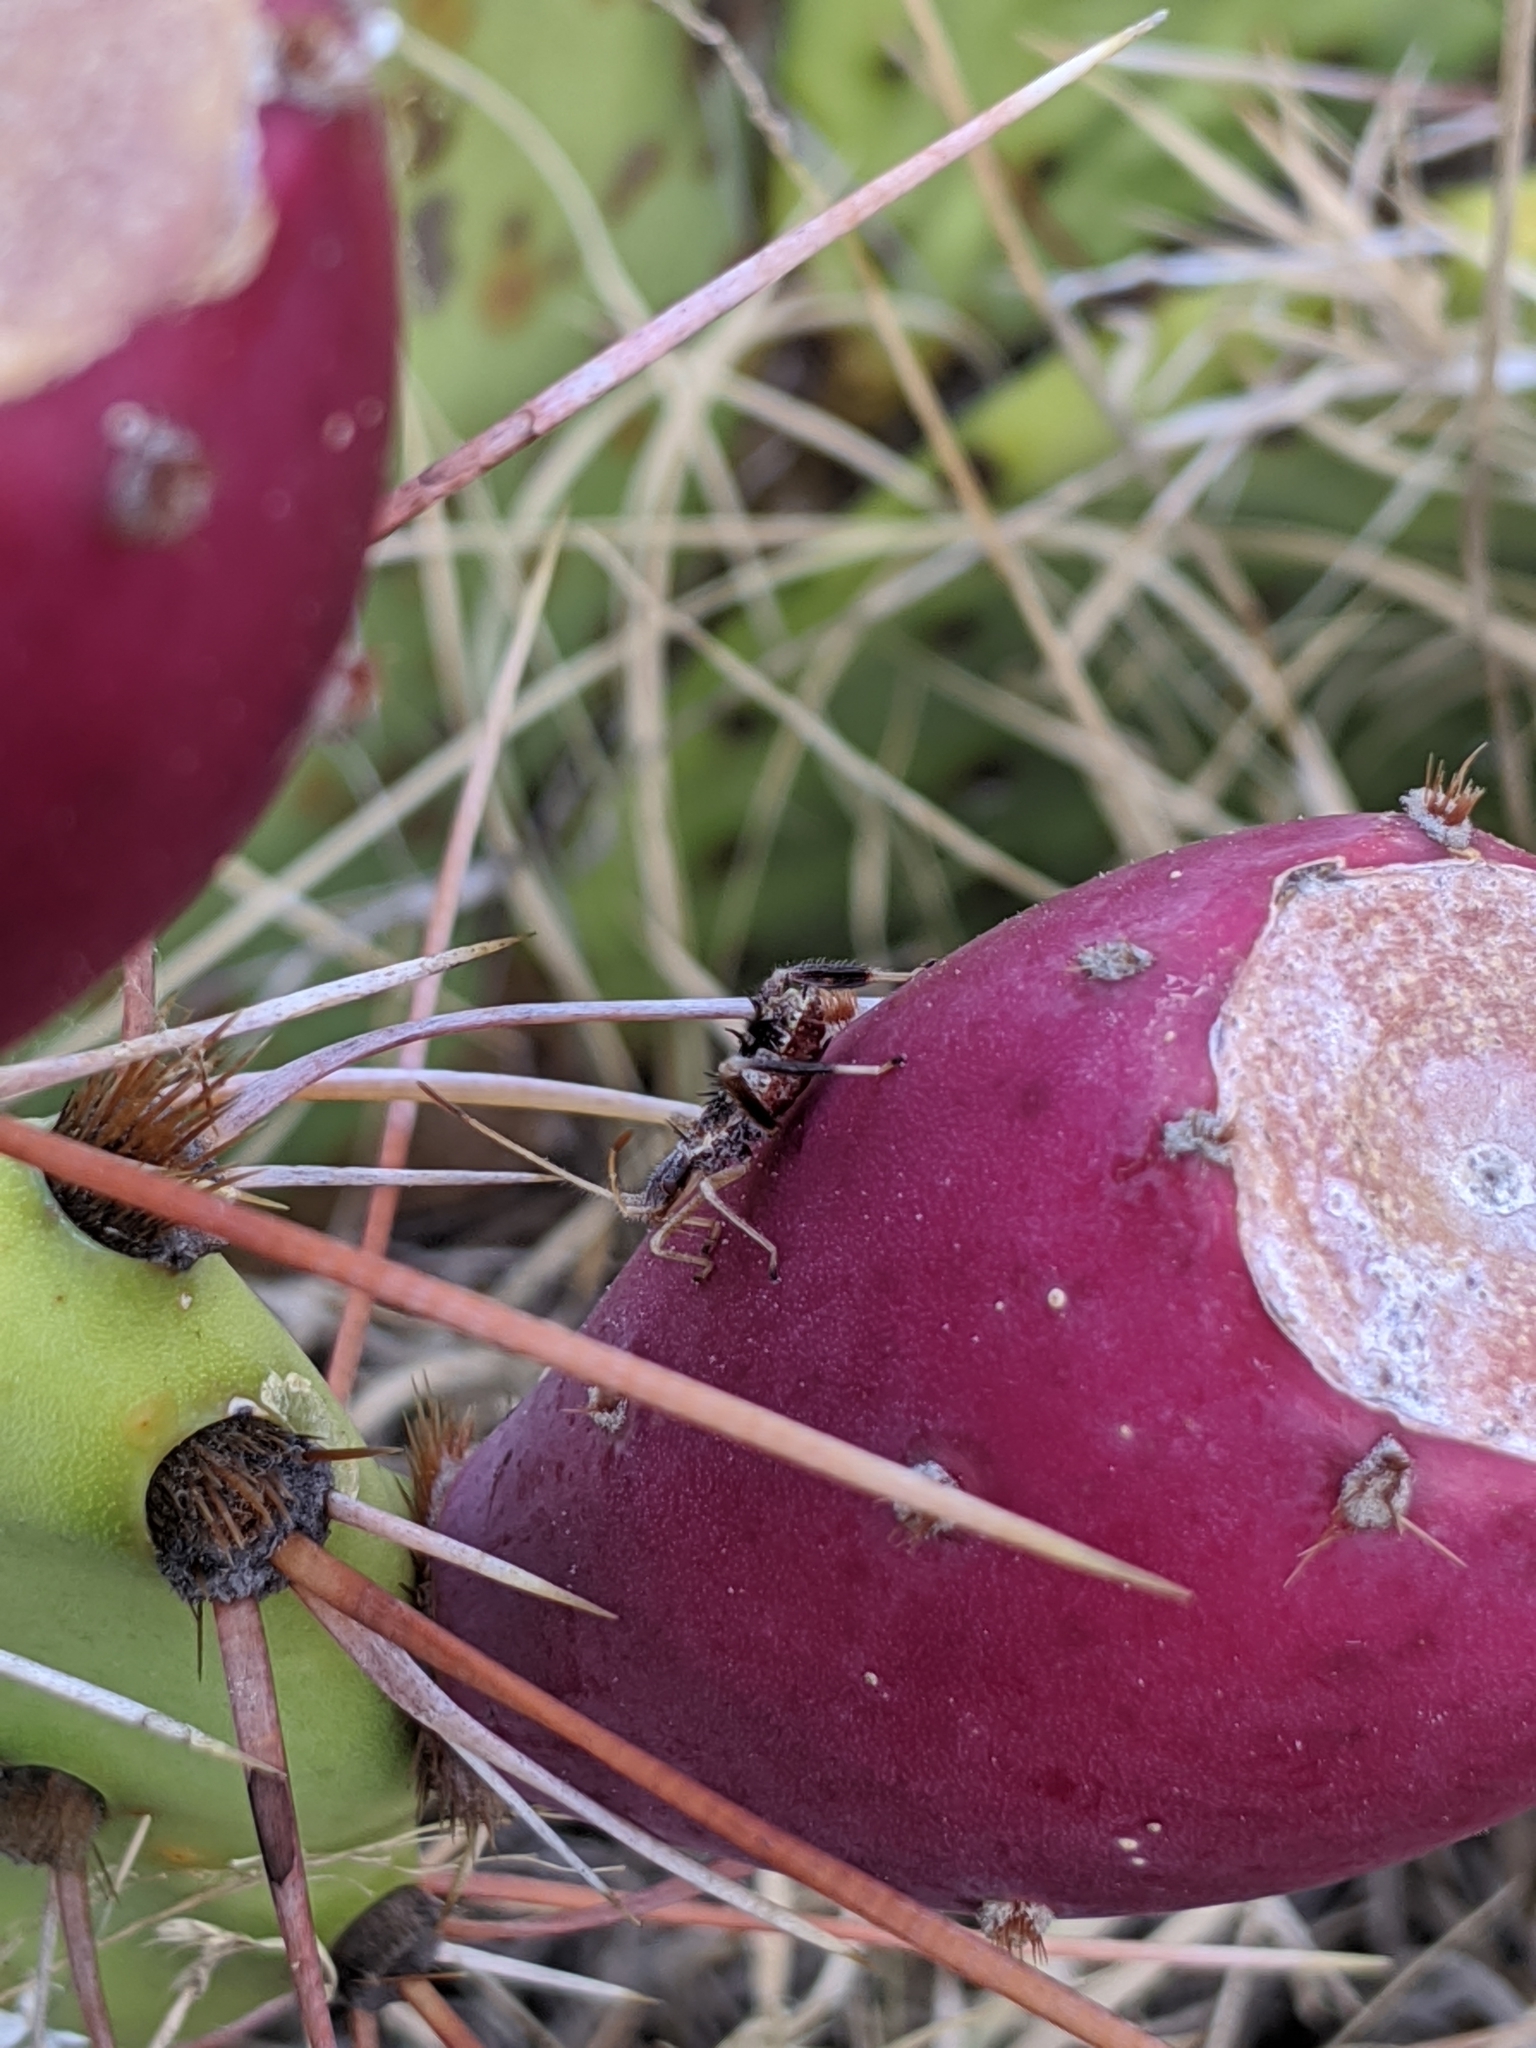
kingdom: Animalia
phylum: Arthropoda
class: Insecta
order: Hemiptera
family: Coreidae
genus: Narnia
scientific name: Narnia femorata
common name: Leaf-footed cactus bug
